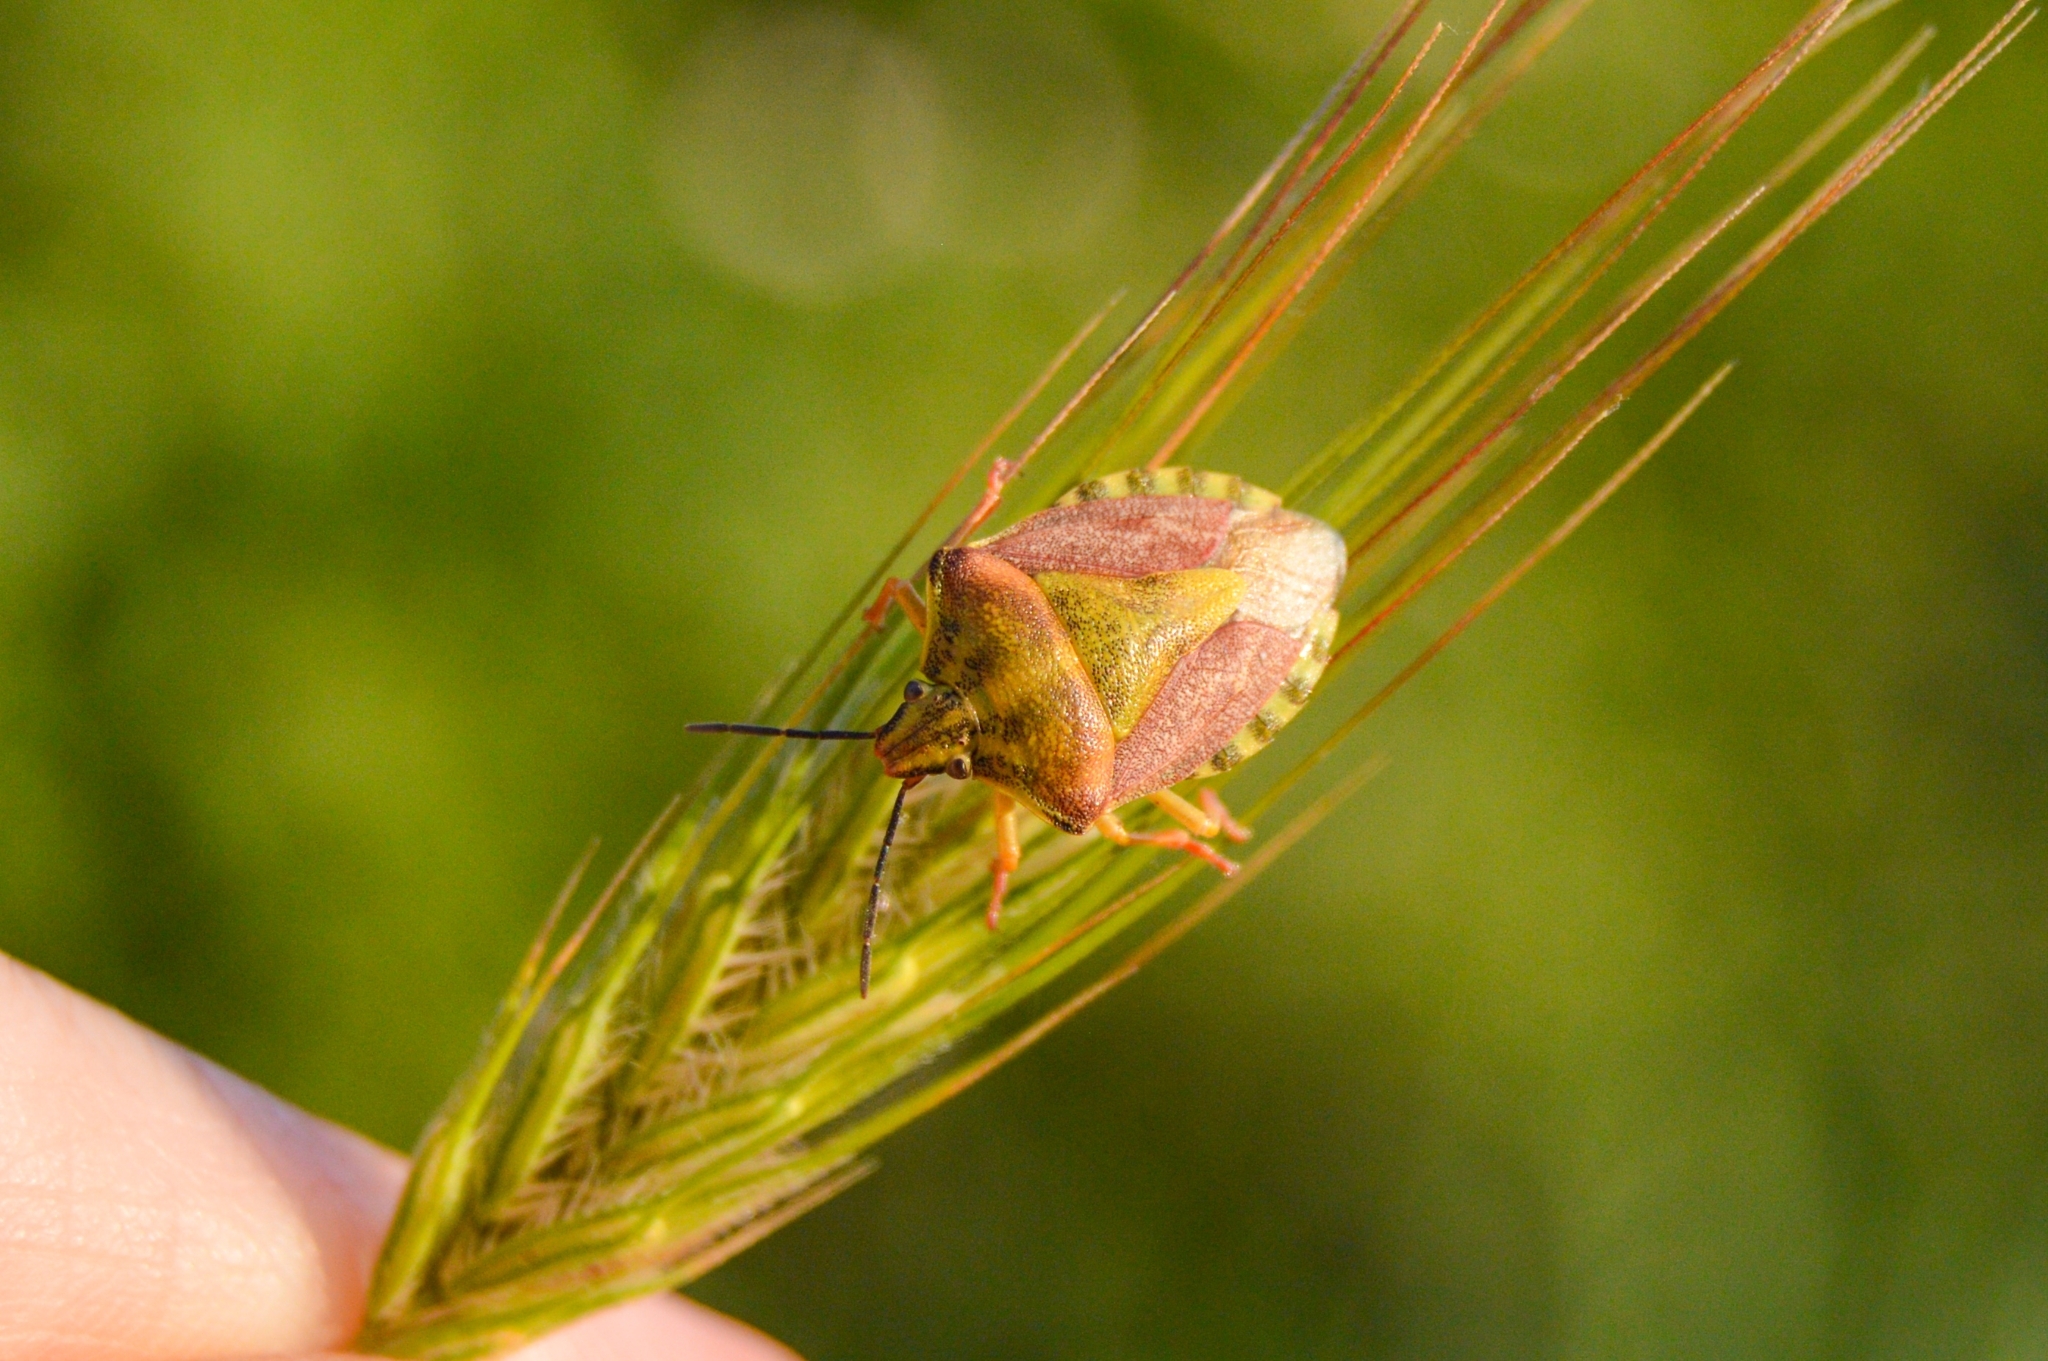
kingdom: Animalia
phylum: Arthropoda
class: Insecta
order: Hemiptera
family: Pentatomidae
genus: Carpocoris
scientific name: Carpocoris purpureipennis
